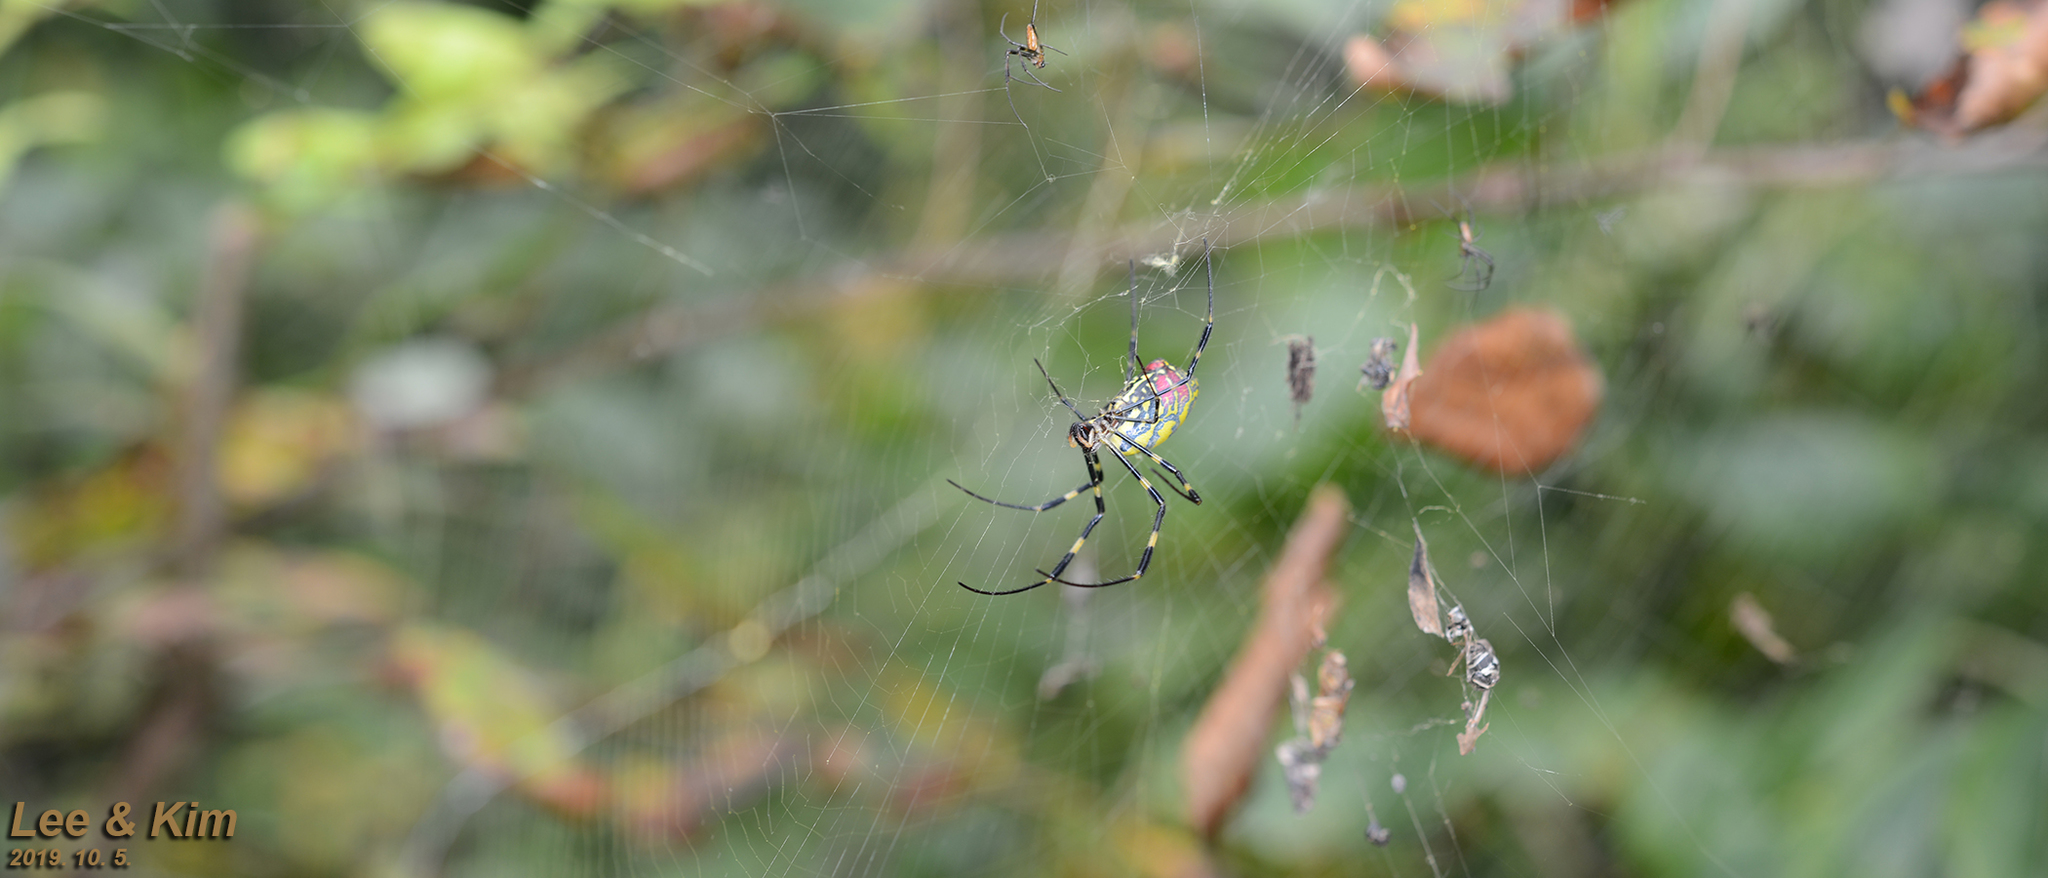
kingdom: Animalia
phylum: Arthropoda
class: Arachnida
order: Araneae
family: Araneidae
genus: Trichonephila
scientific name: Trichonephila clavata
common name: Jorō spider
